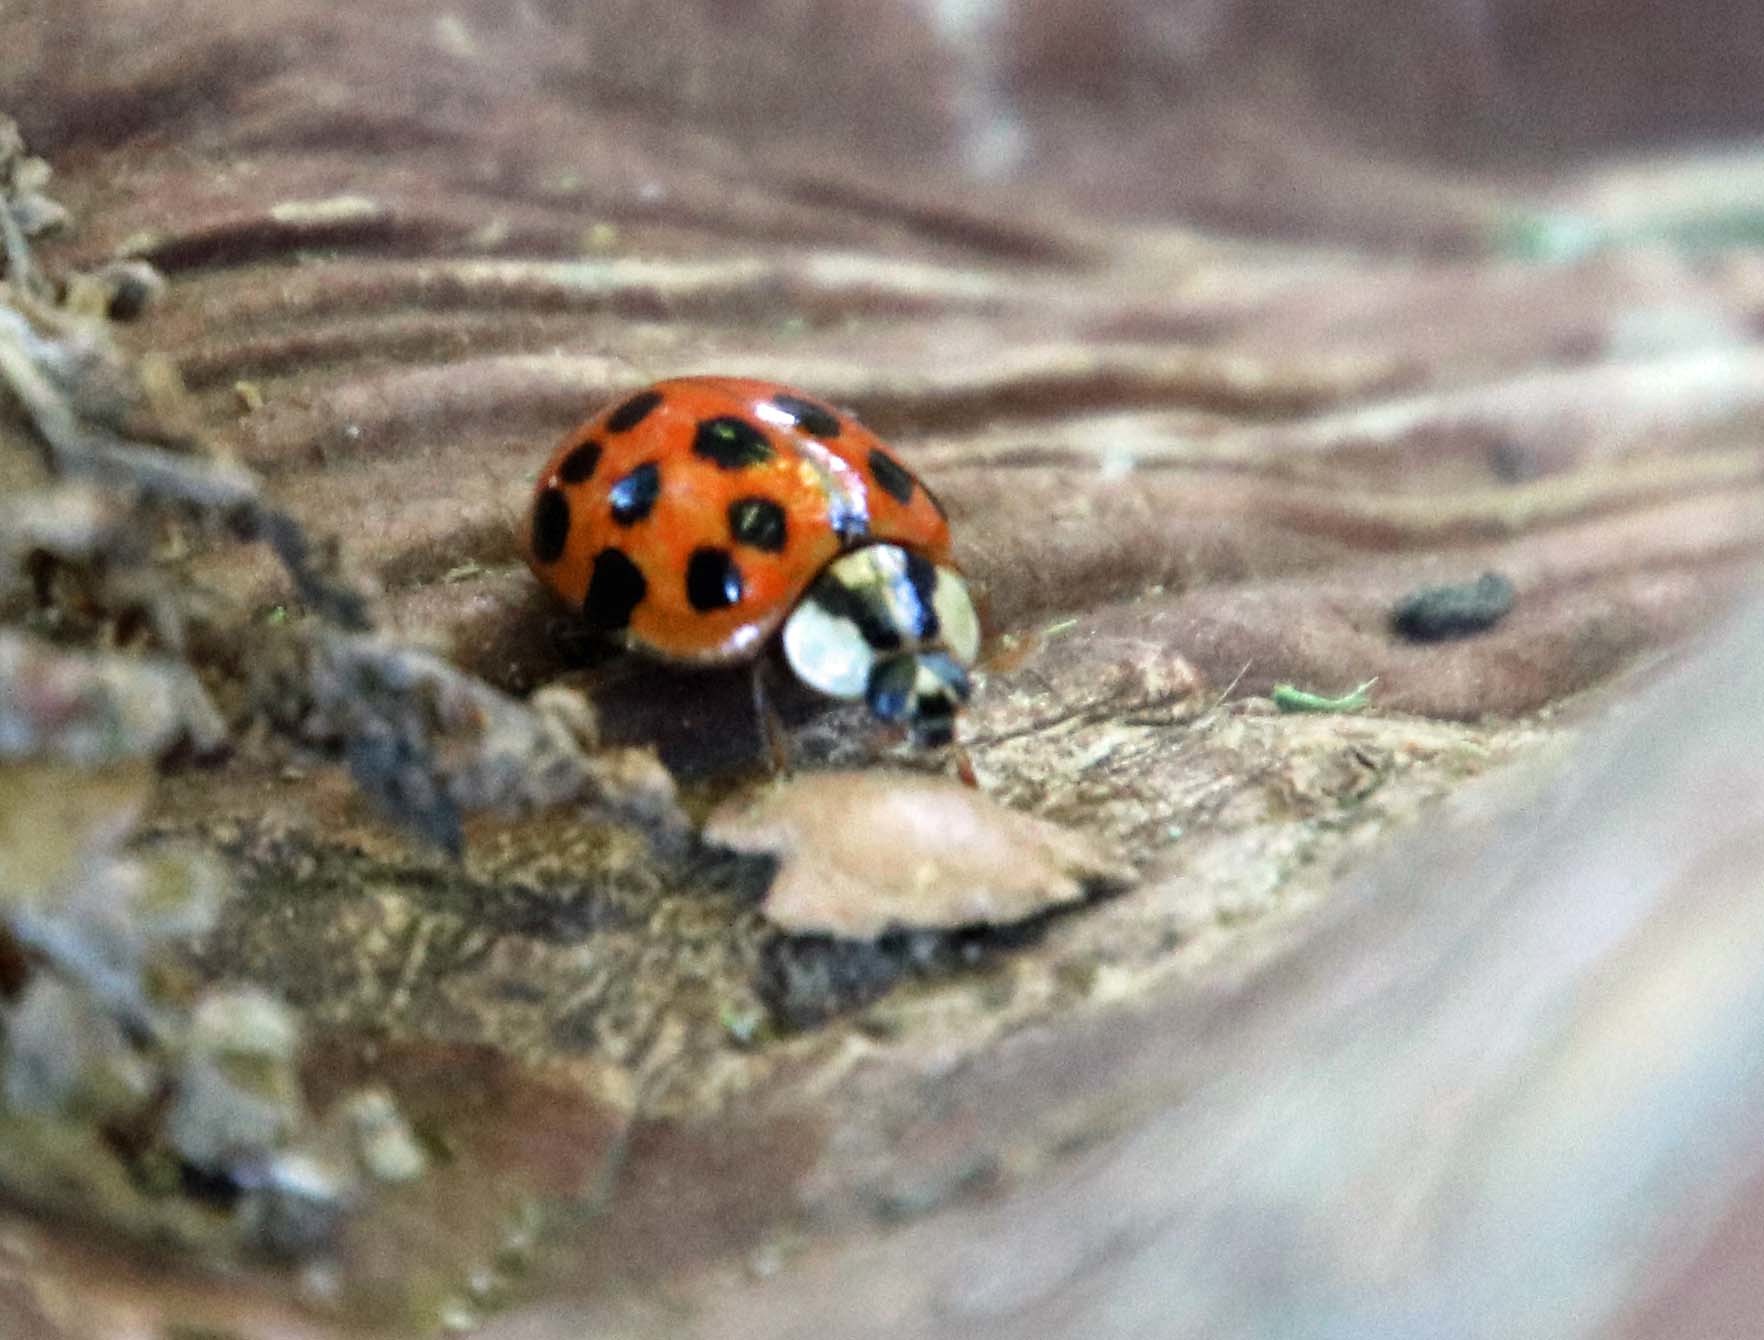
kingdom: Animalia
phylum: Arthropoda
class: Insecta
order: Coleoptera
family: Coccinellidae
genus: Harmonia
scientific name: Harmonia axyridis
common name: Harlequin ladybird
